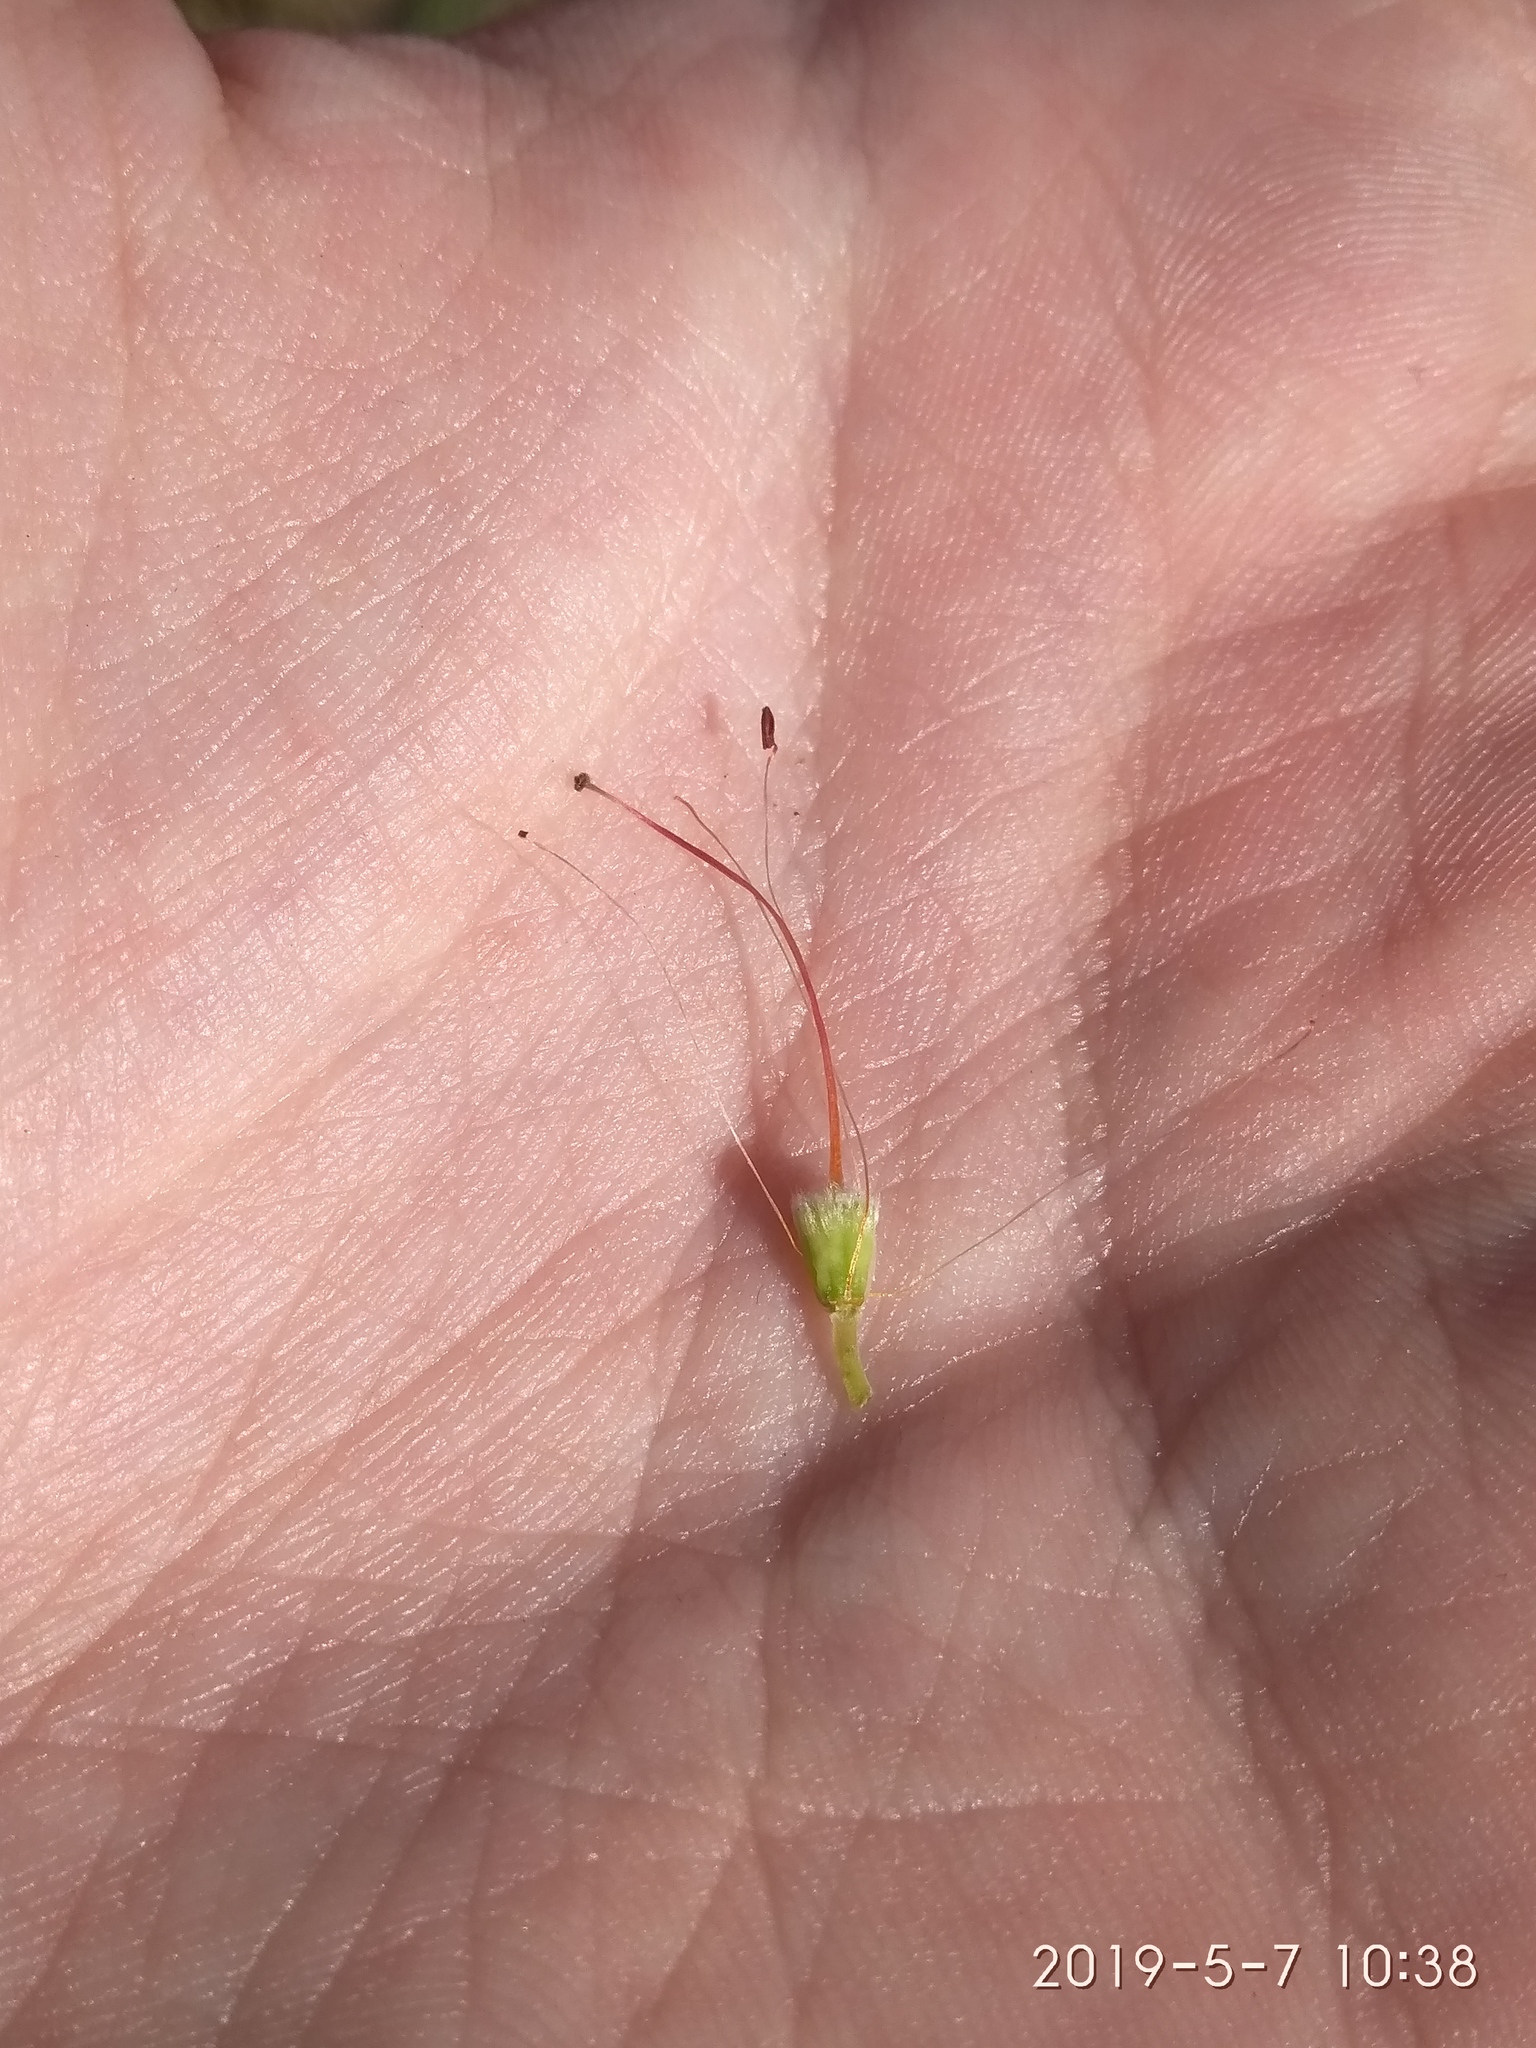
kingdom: Plantae
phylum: Tracheophyta
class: Magnoliopsida
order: Ericales
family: Ericaceae
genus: Erica
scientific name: Erica vestita
